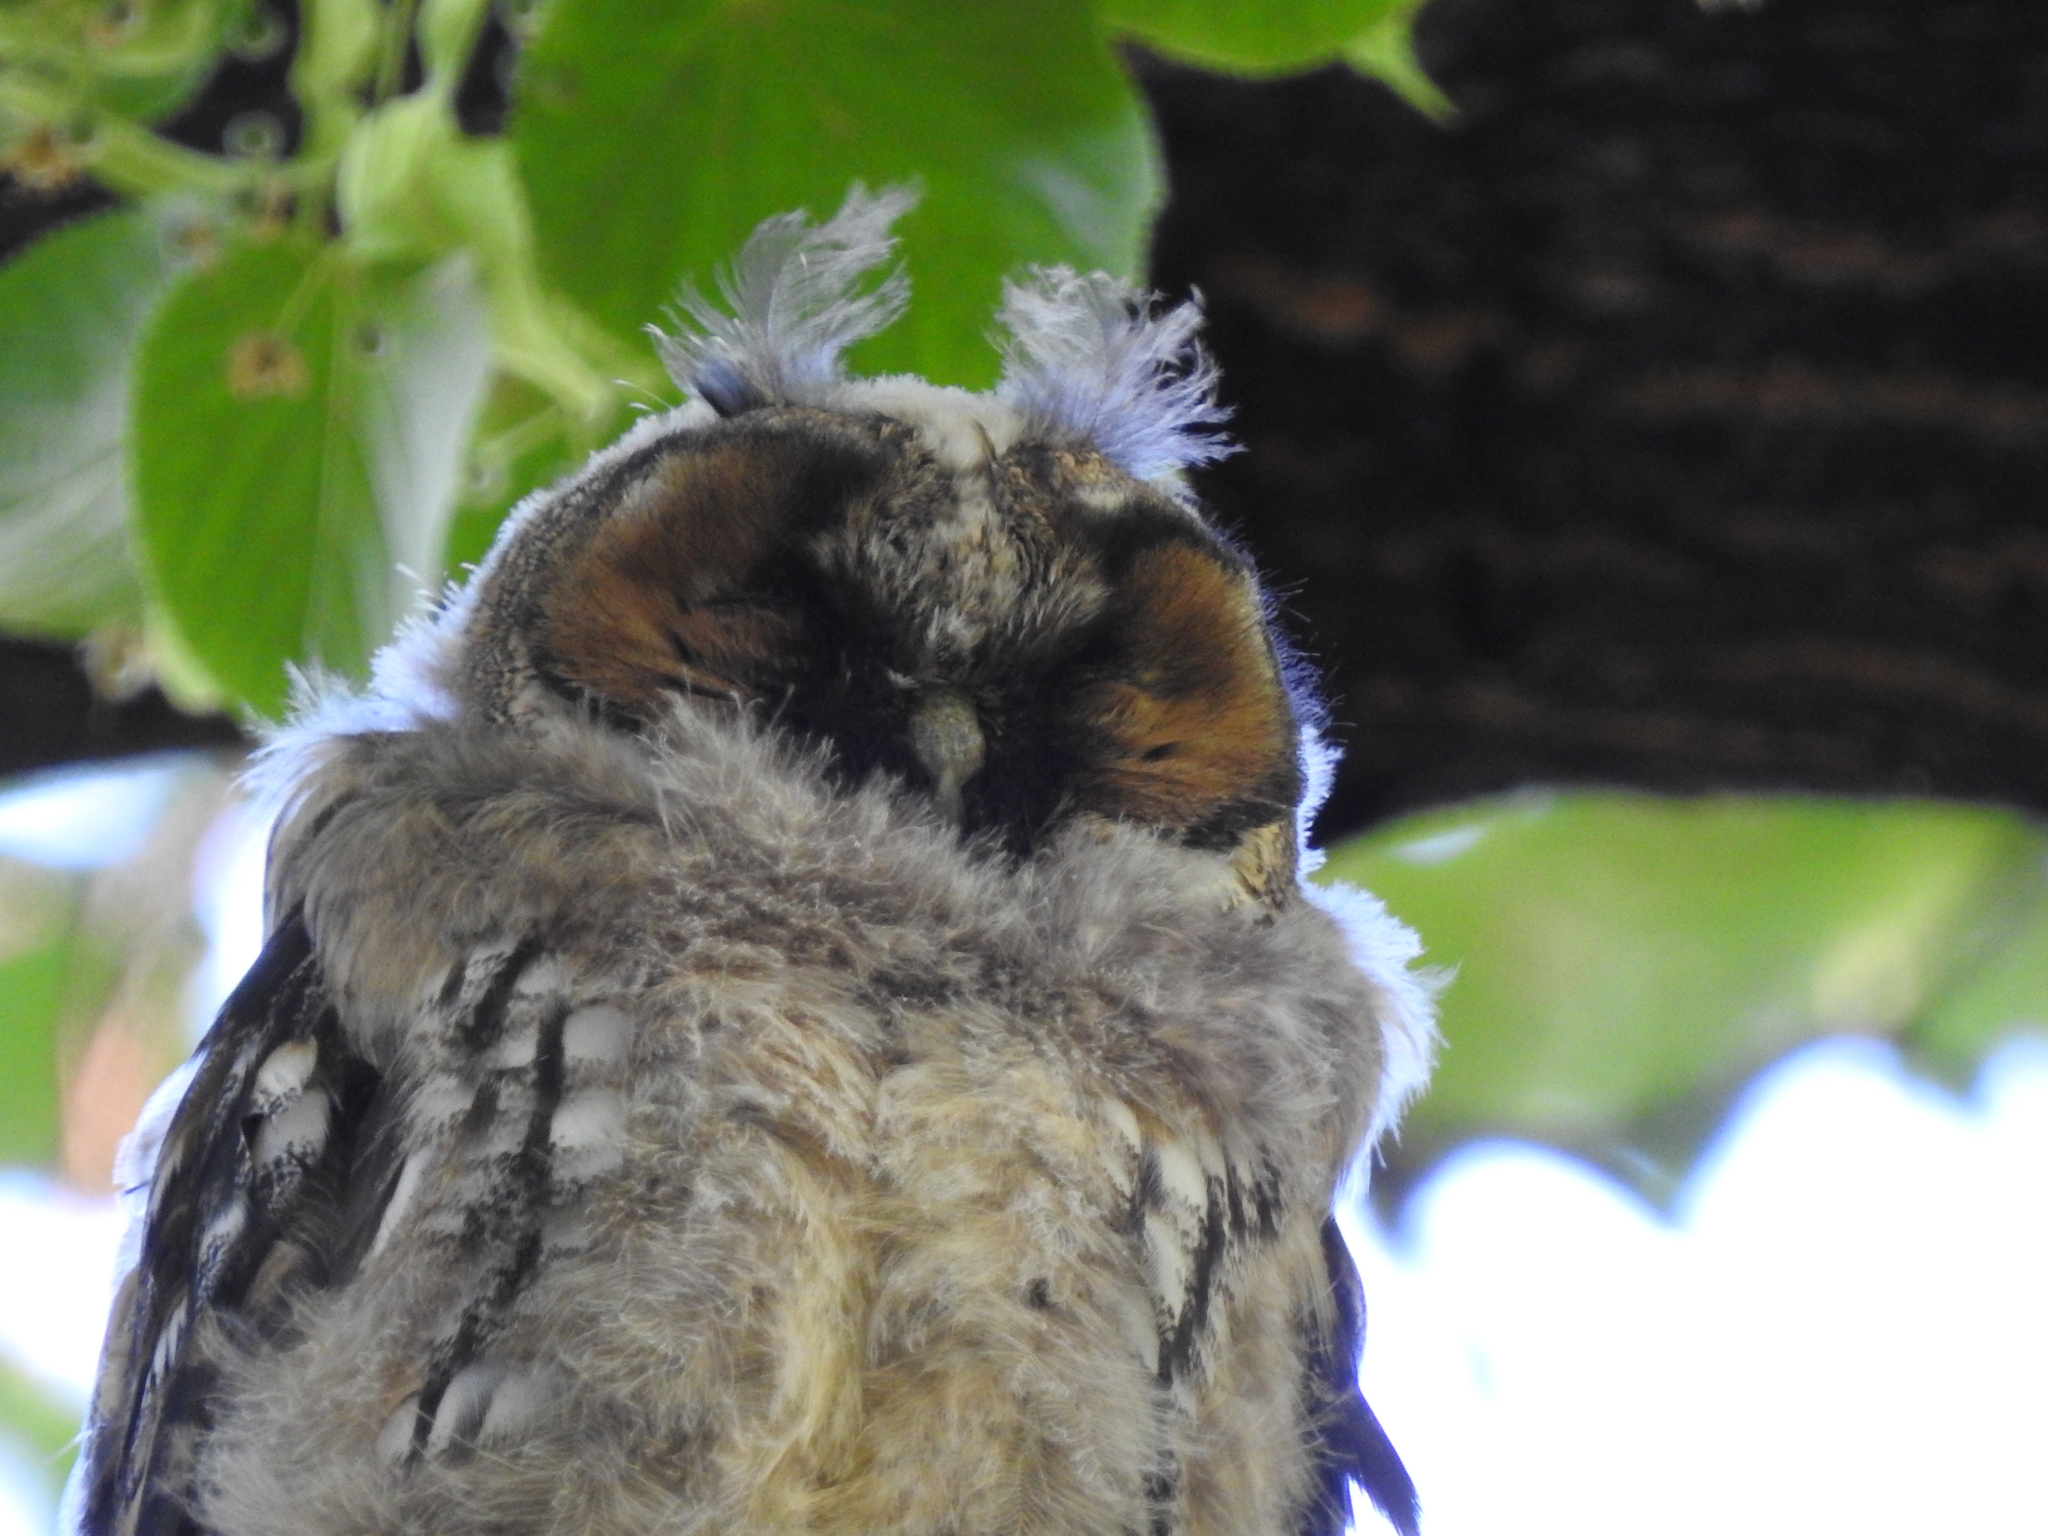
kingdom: Animalia
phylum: Chordata
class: Aves
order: Strigiformes
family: Strigidae
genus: Asio
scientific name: Asio otus
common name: Long-eared owl
